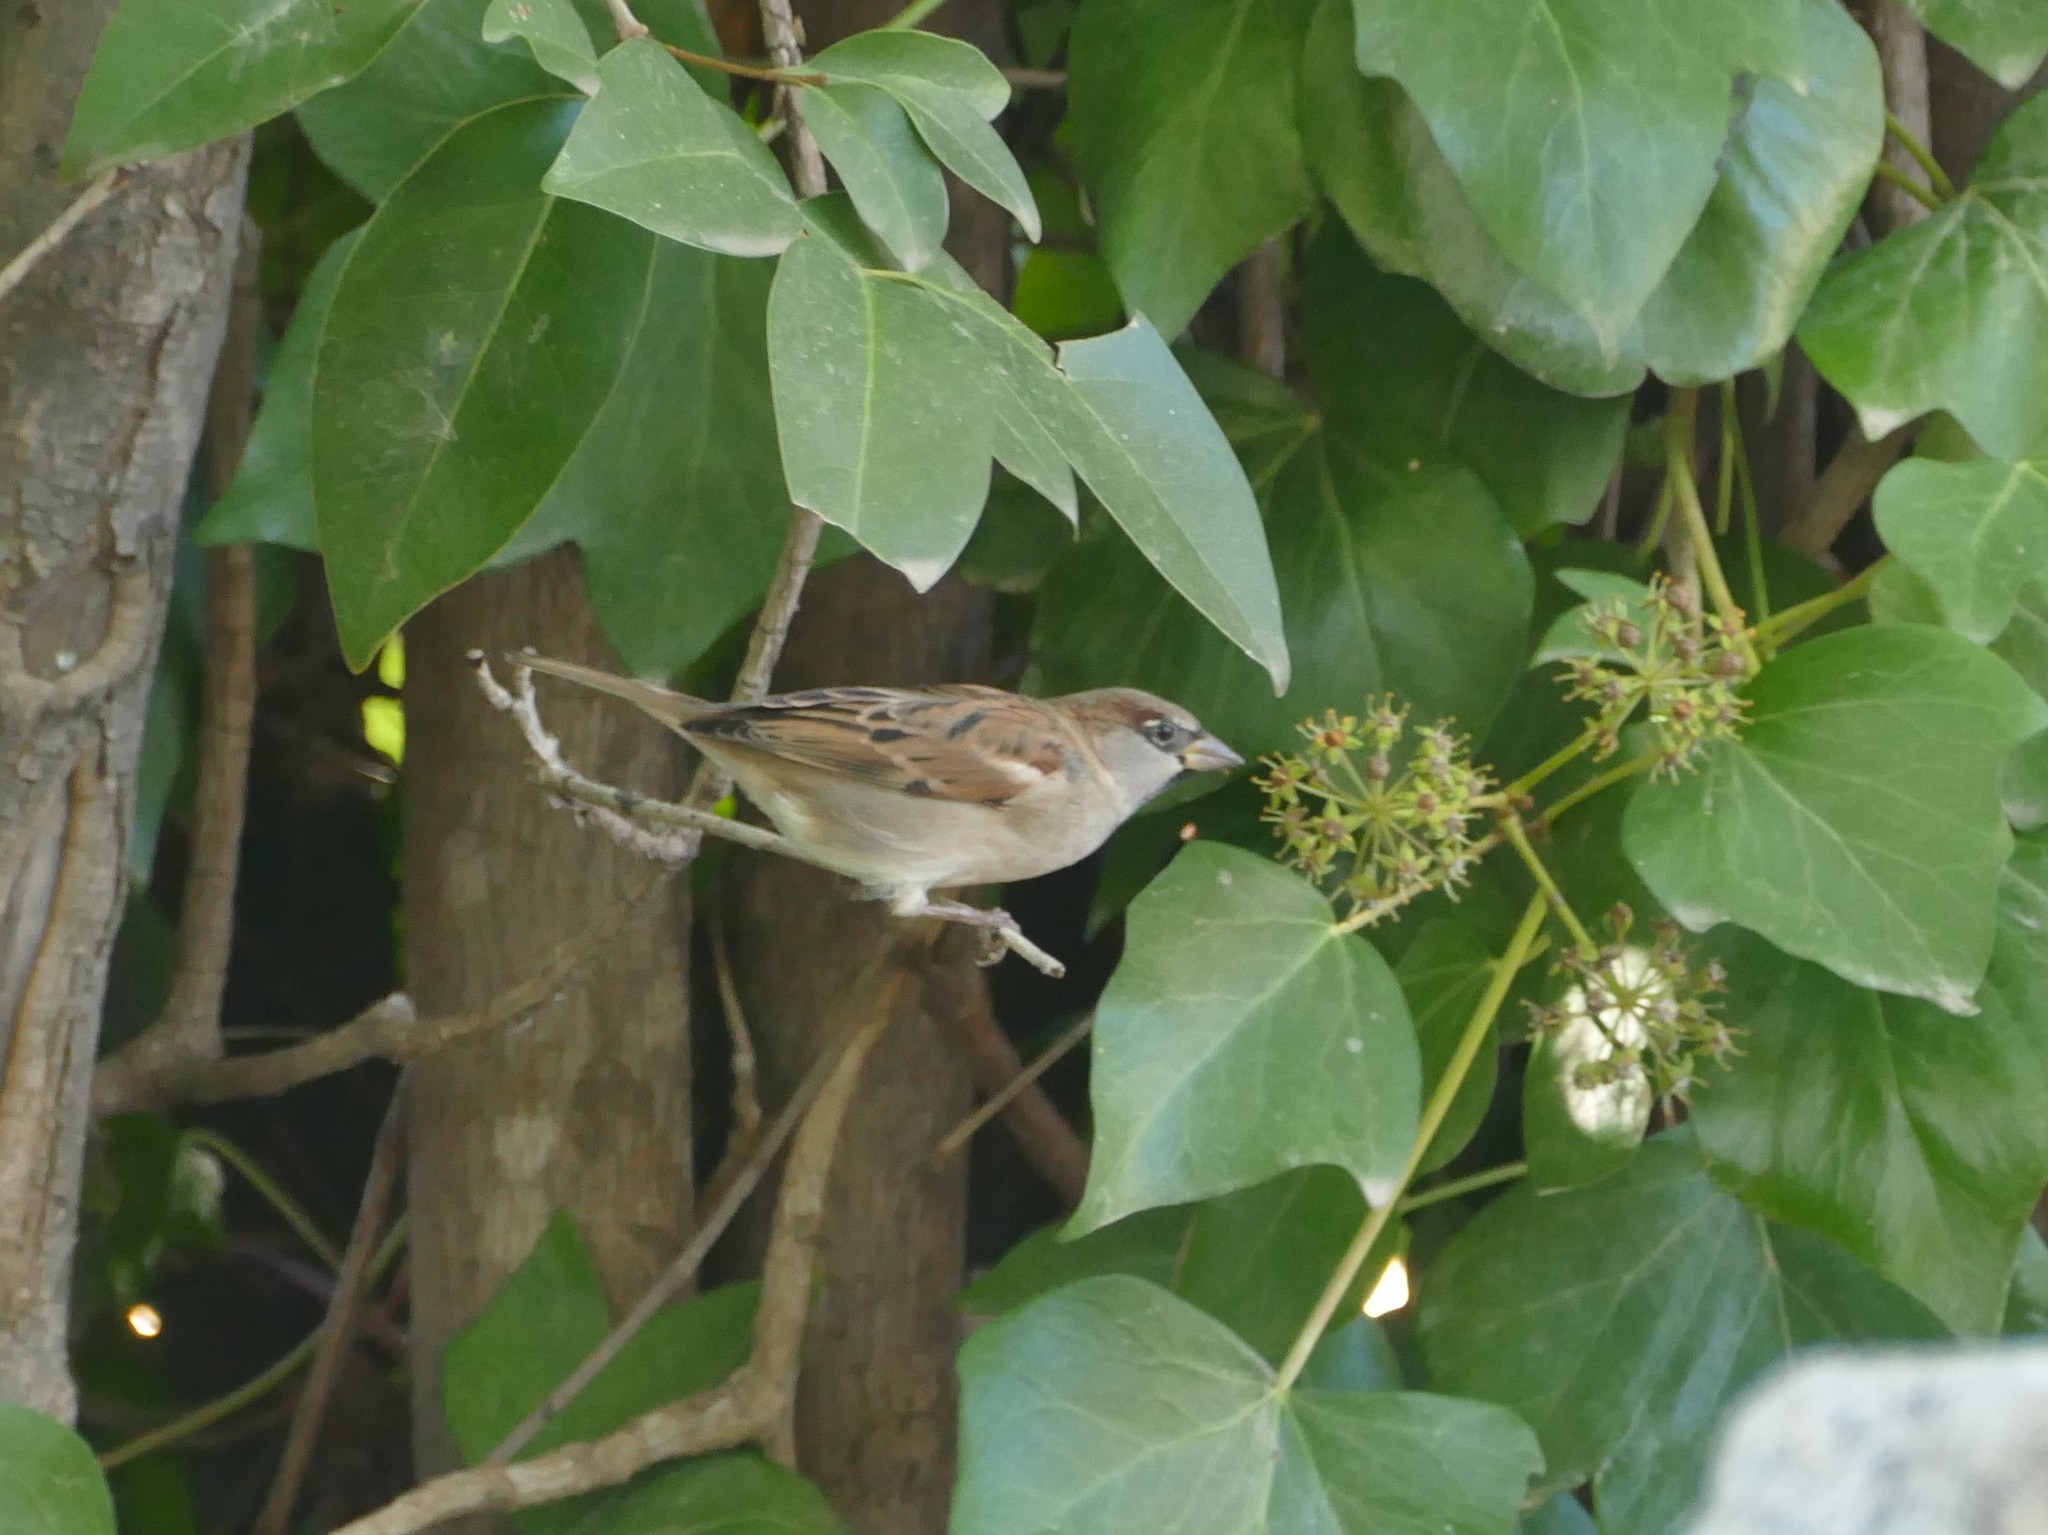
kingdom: Animalia
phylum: Chordata
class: Aves
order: Passeriformes
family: Passeridae
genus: Passer
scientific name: Passer domesticus
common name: House sparrow
